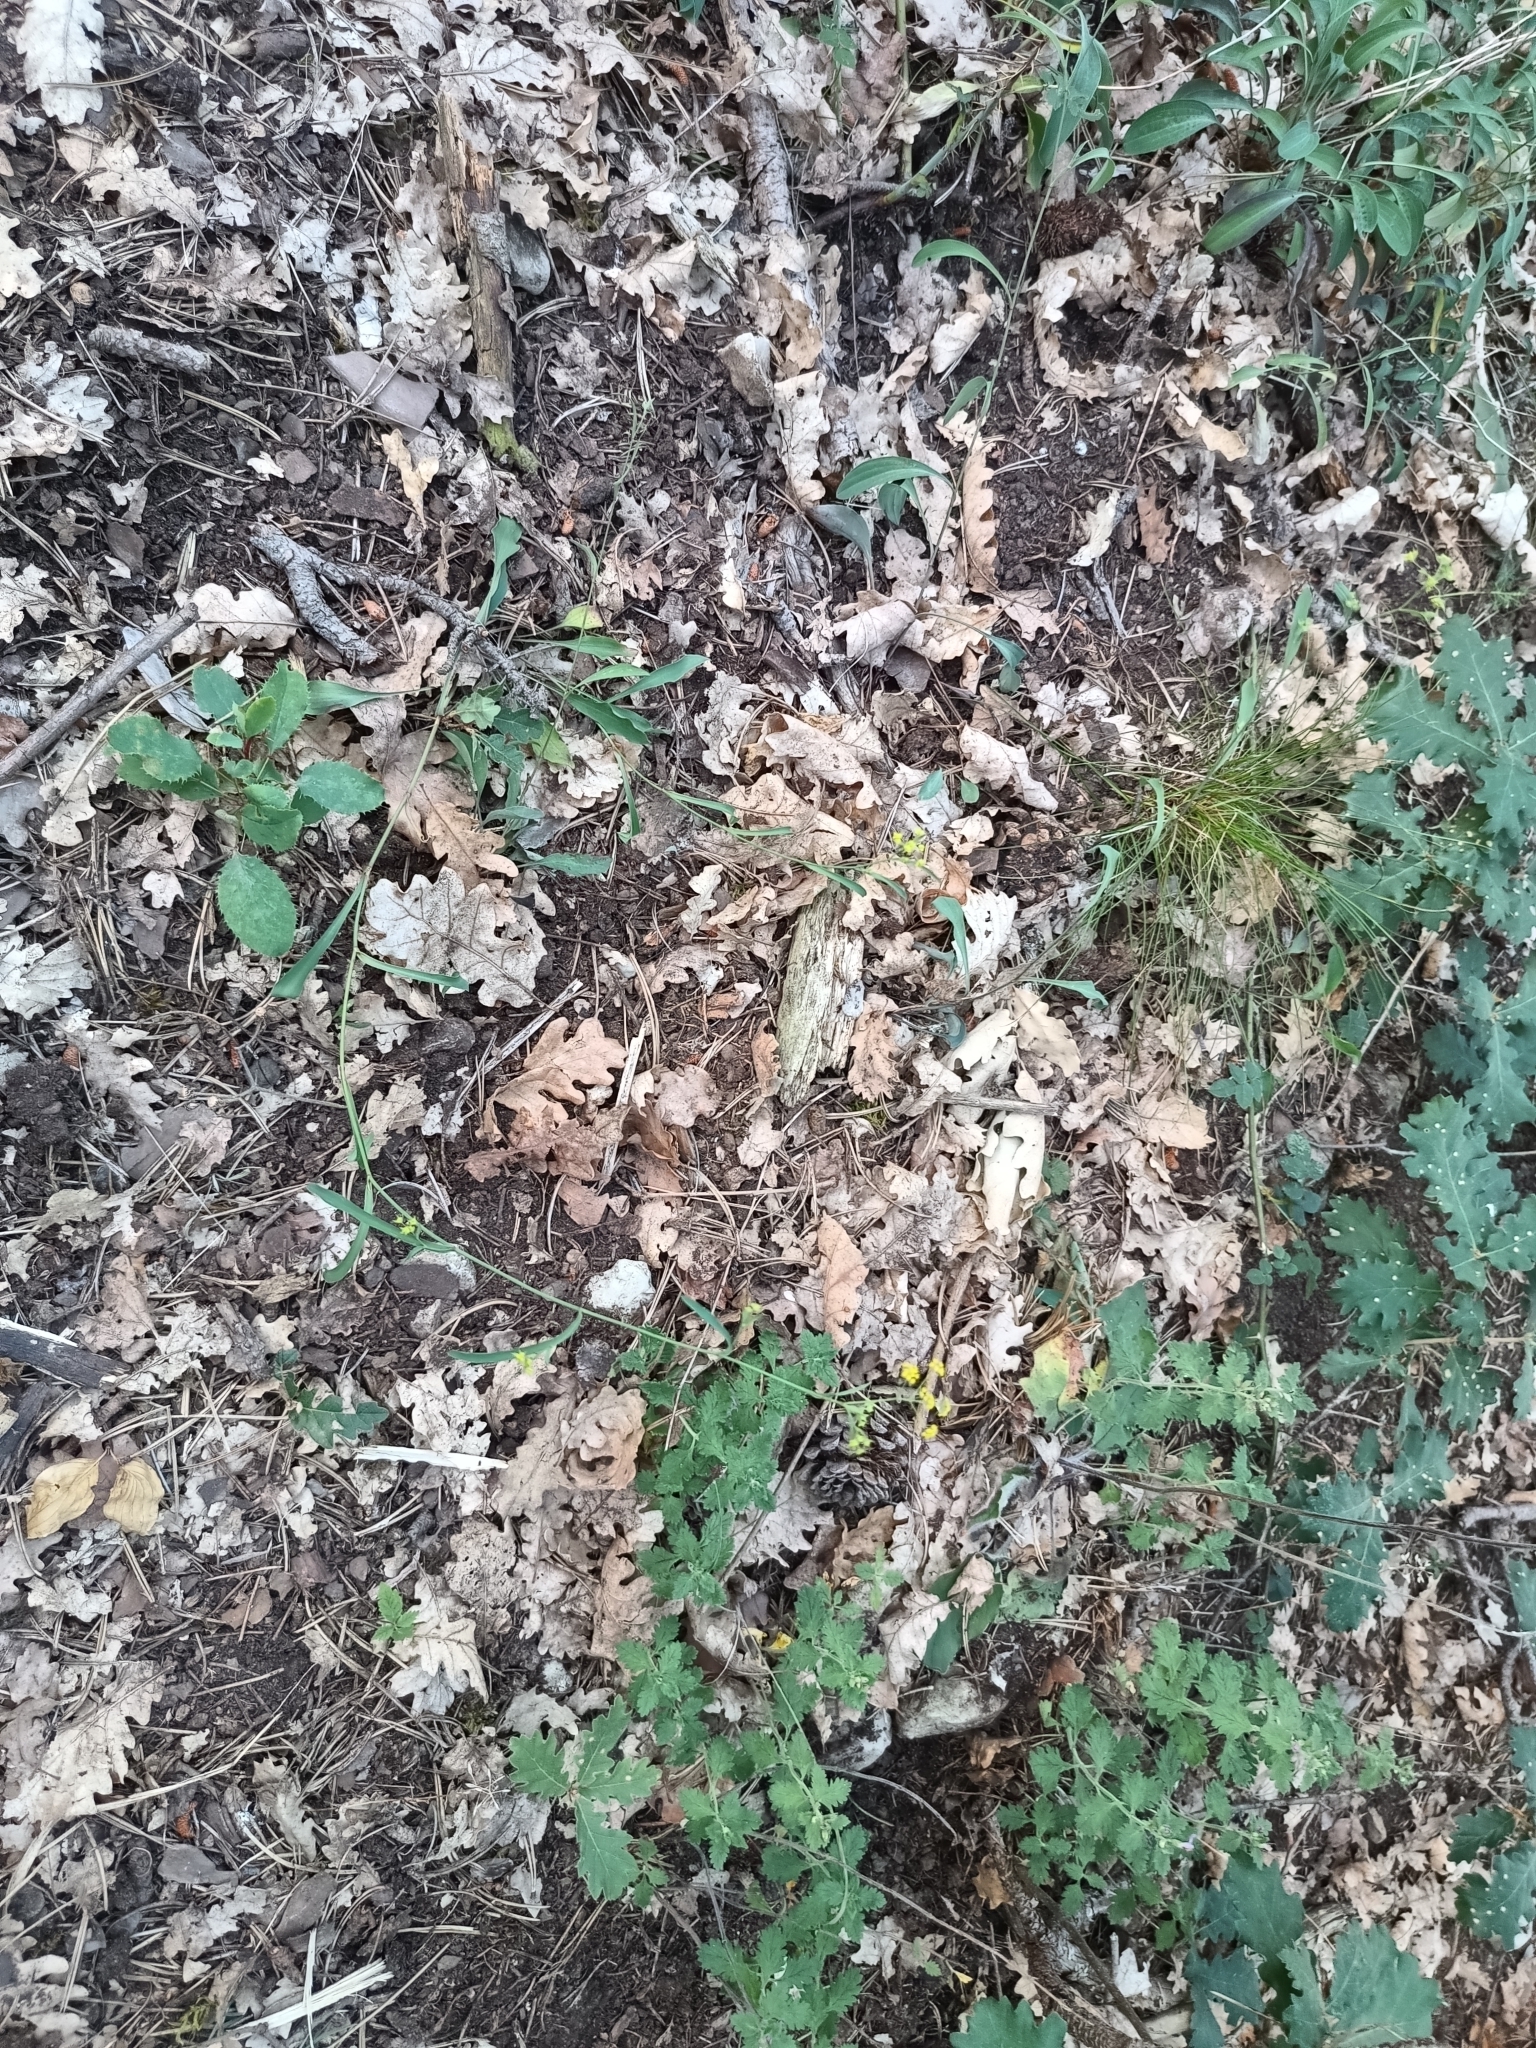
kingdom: Plantae
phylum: Tracheophyta
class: Magnoliopsida
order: Apiales
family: Apiaceae
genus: Bupleurum
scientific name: Bupleurum falcatum
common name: Sickle-leaved hare's-ear
